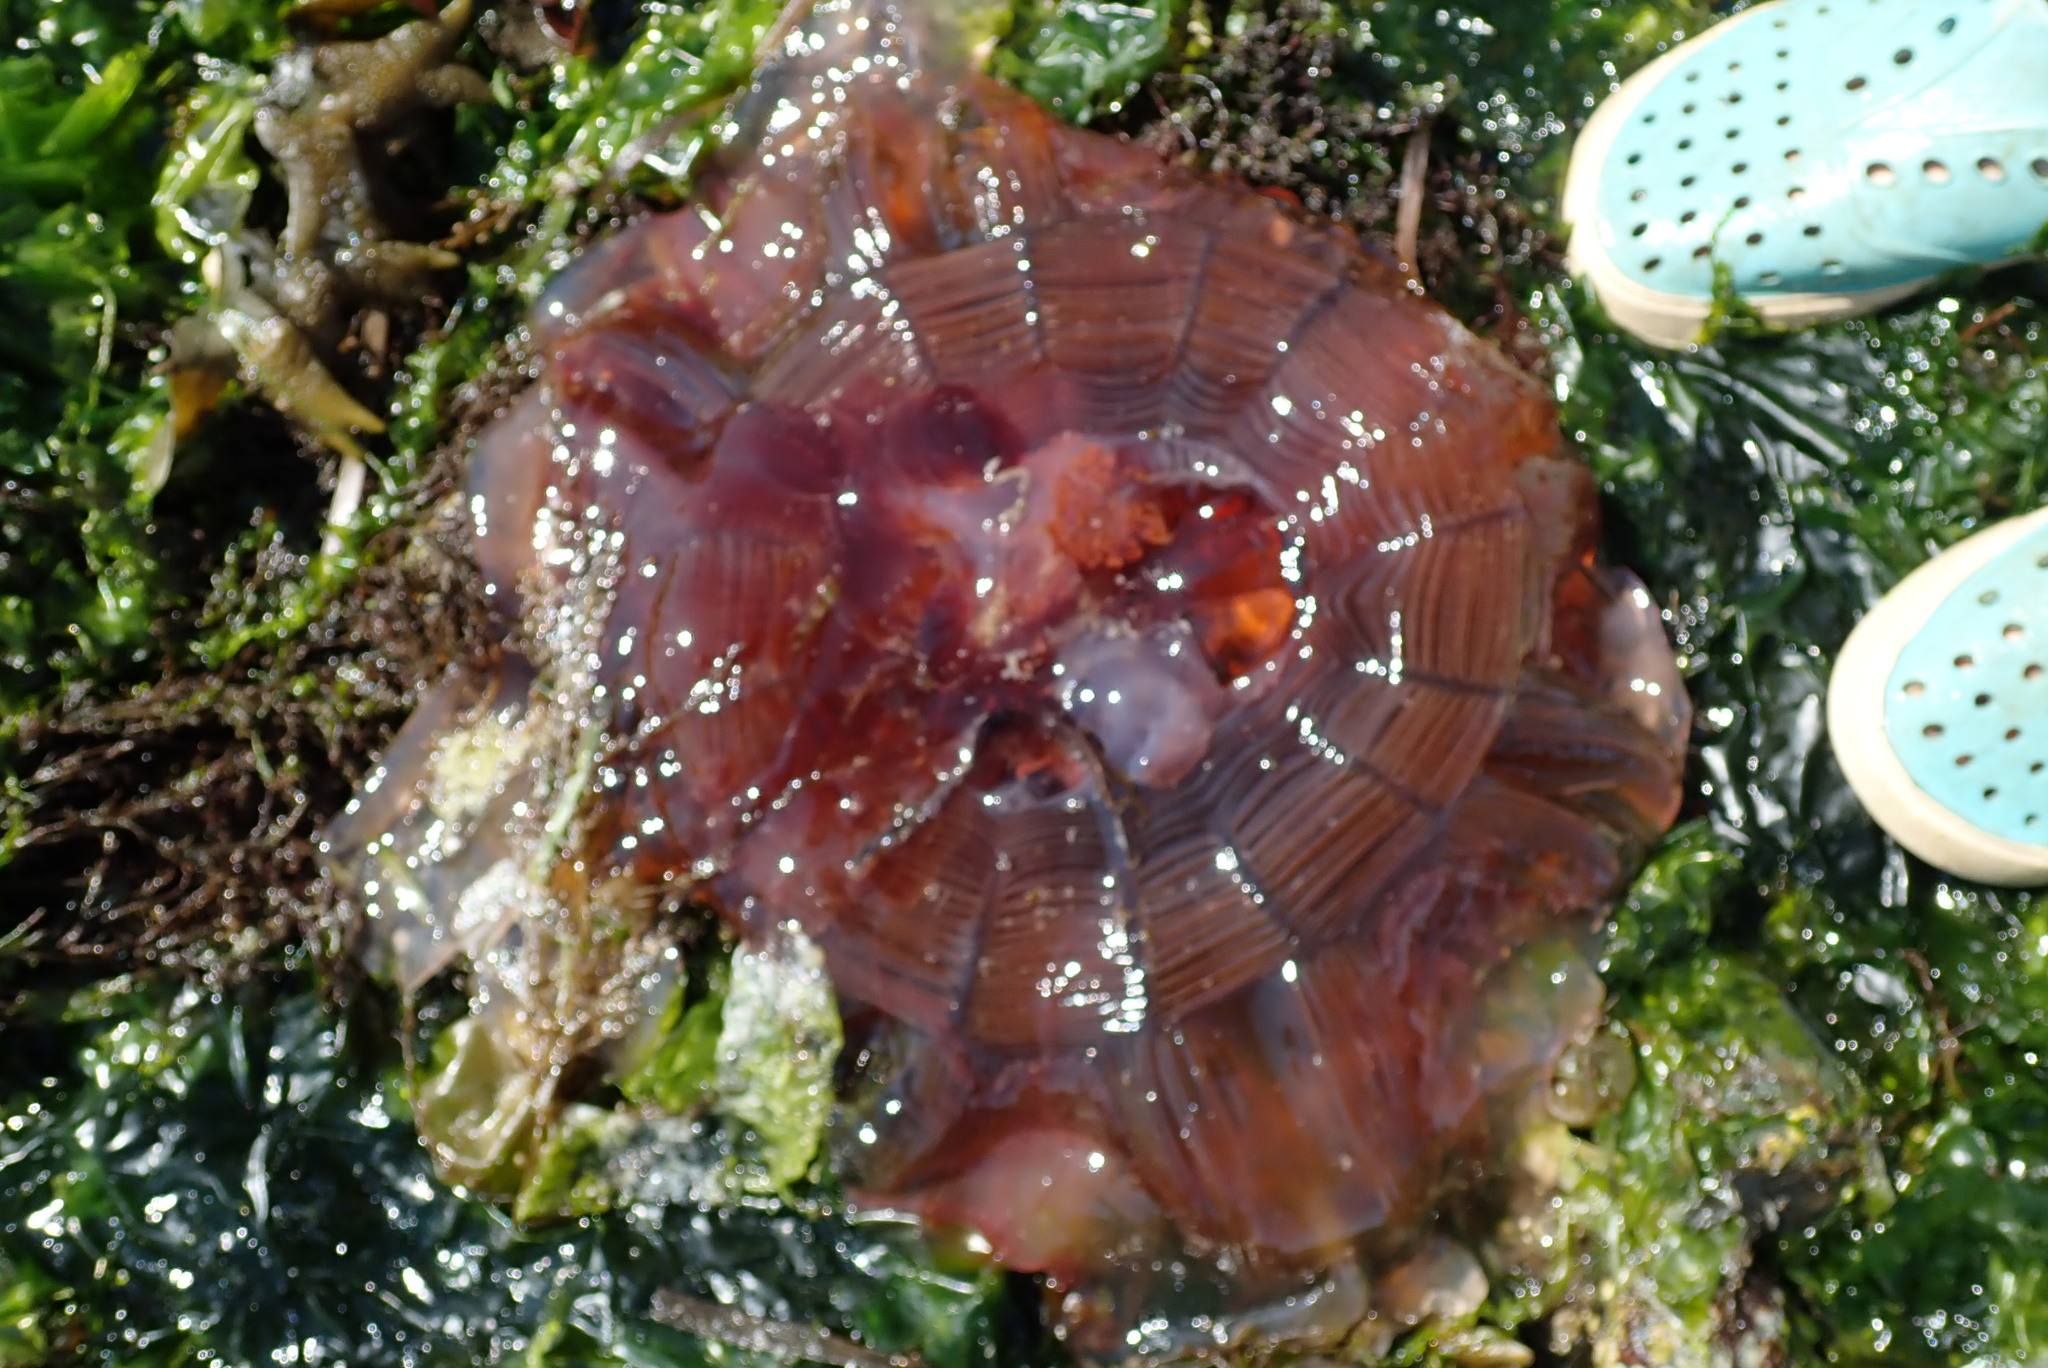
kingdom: Animalia
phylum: Cnidaria
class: Scyphozoa
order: Semaeostomeae
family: Cyaneidae
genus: Cyanea
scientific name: Cyanea ferruginea
